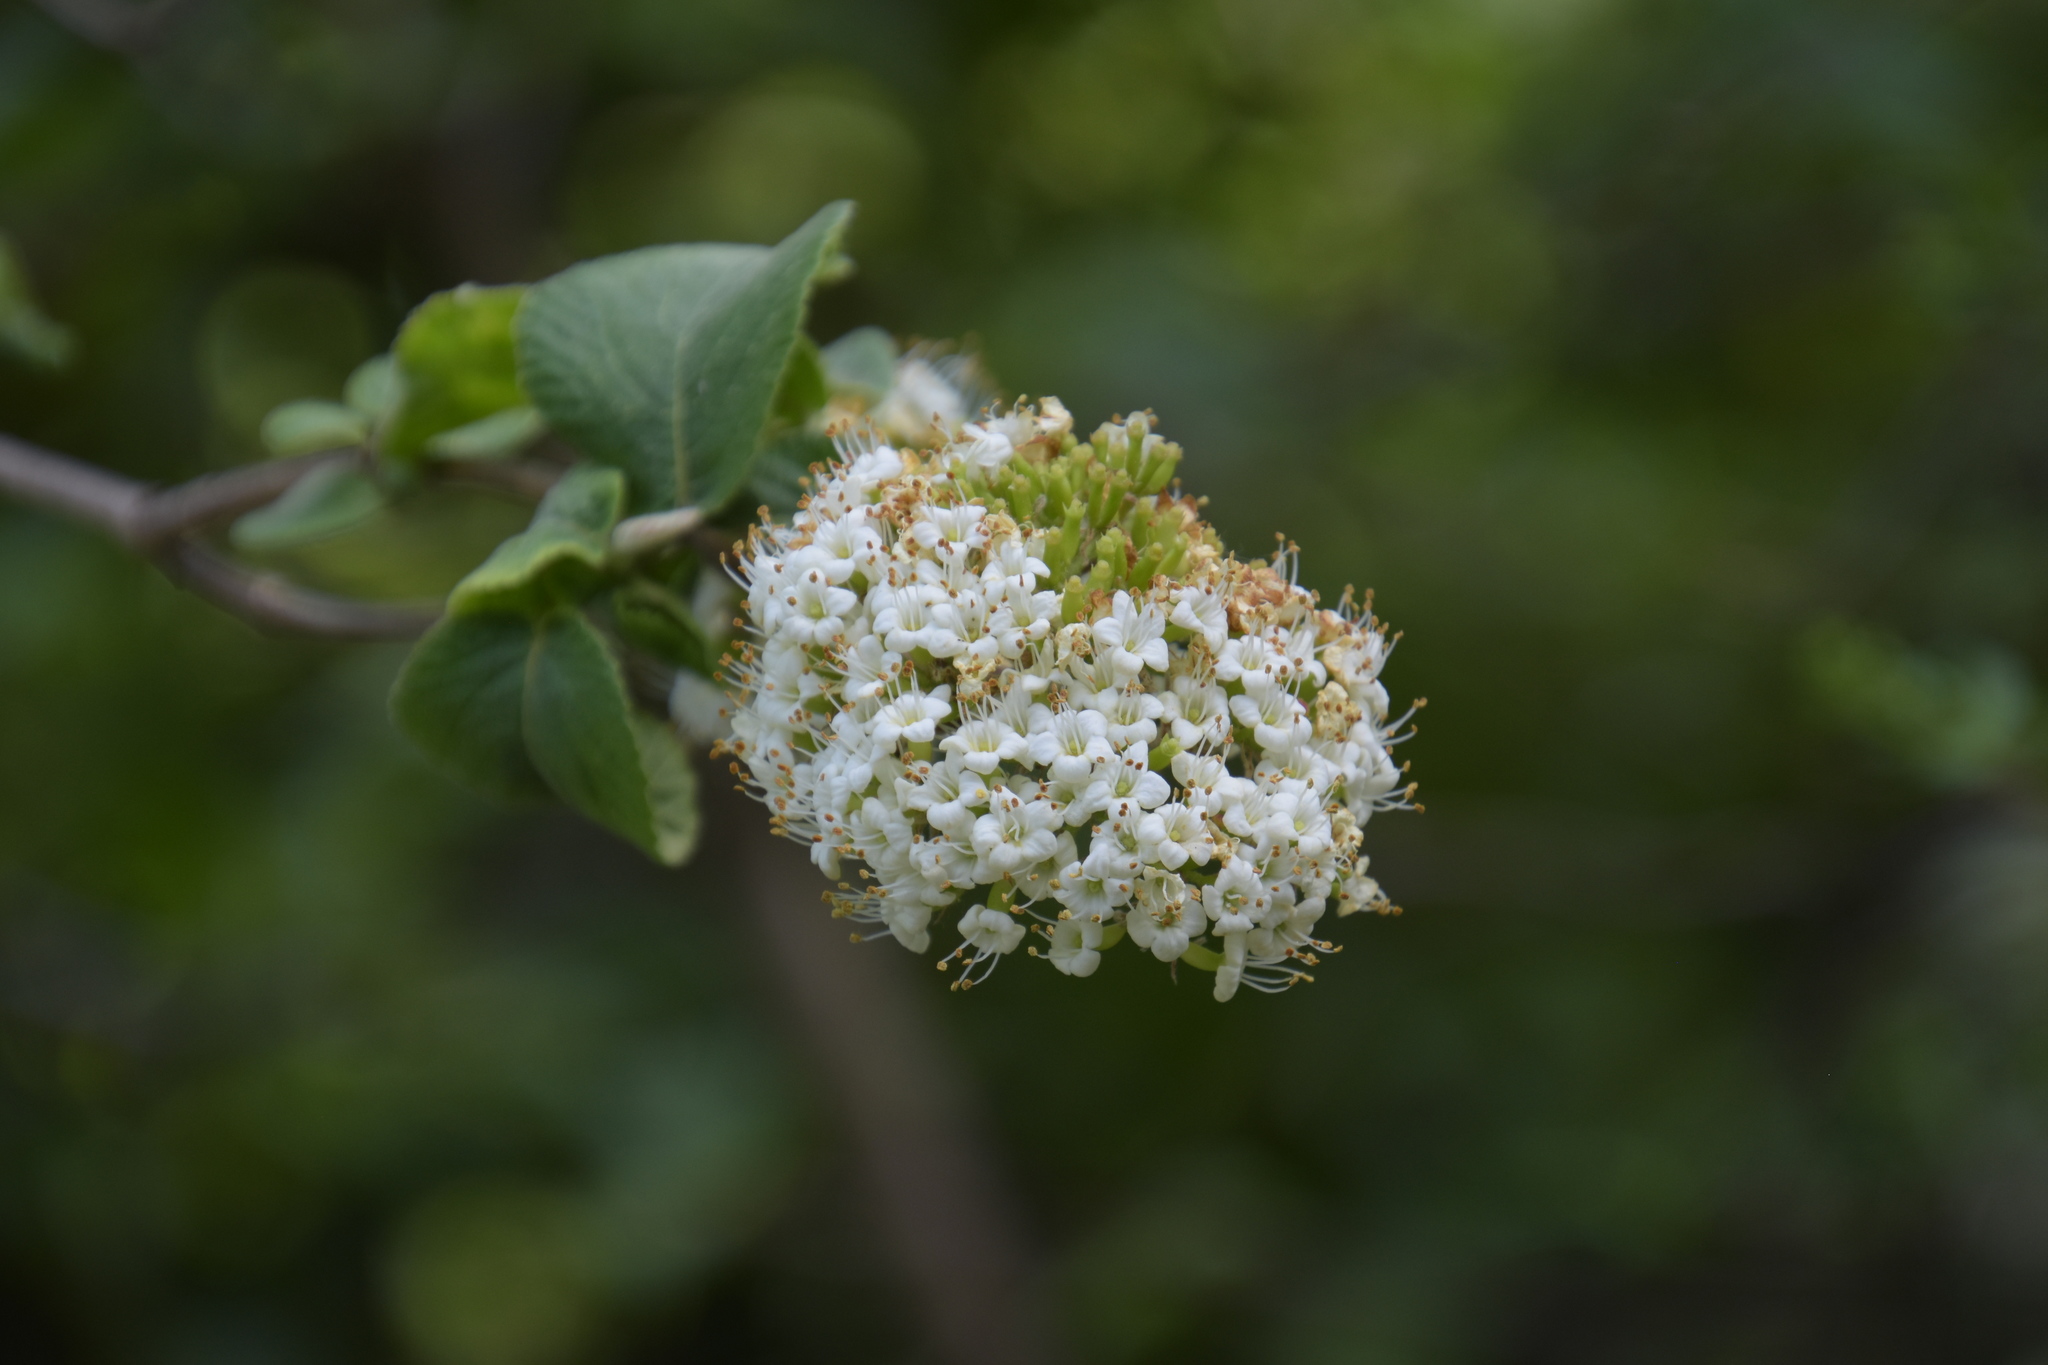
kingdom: Plantae
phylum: Tracheophyta
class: Magnoliopsida
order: Dipsacales
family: Viburnaceae
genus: Viburnum
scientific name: Viburnum lantana
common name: Wayfaring tree
